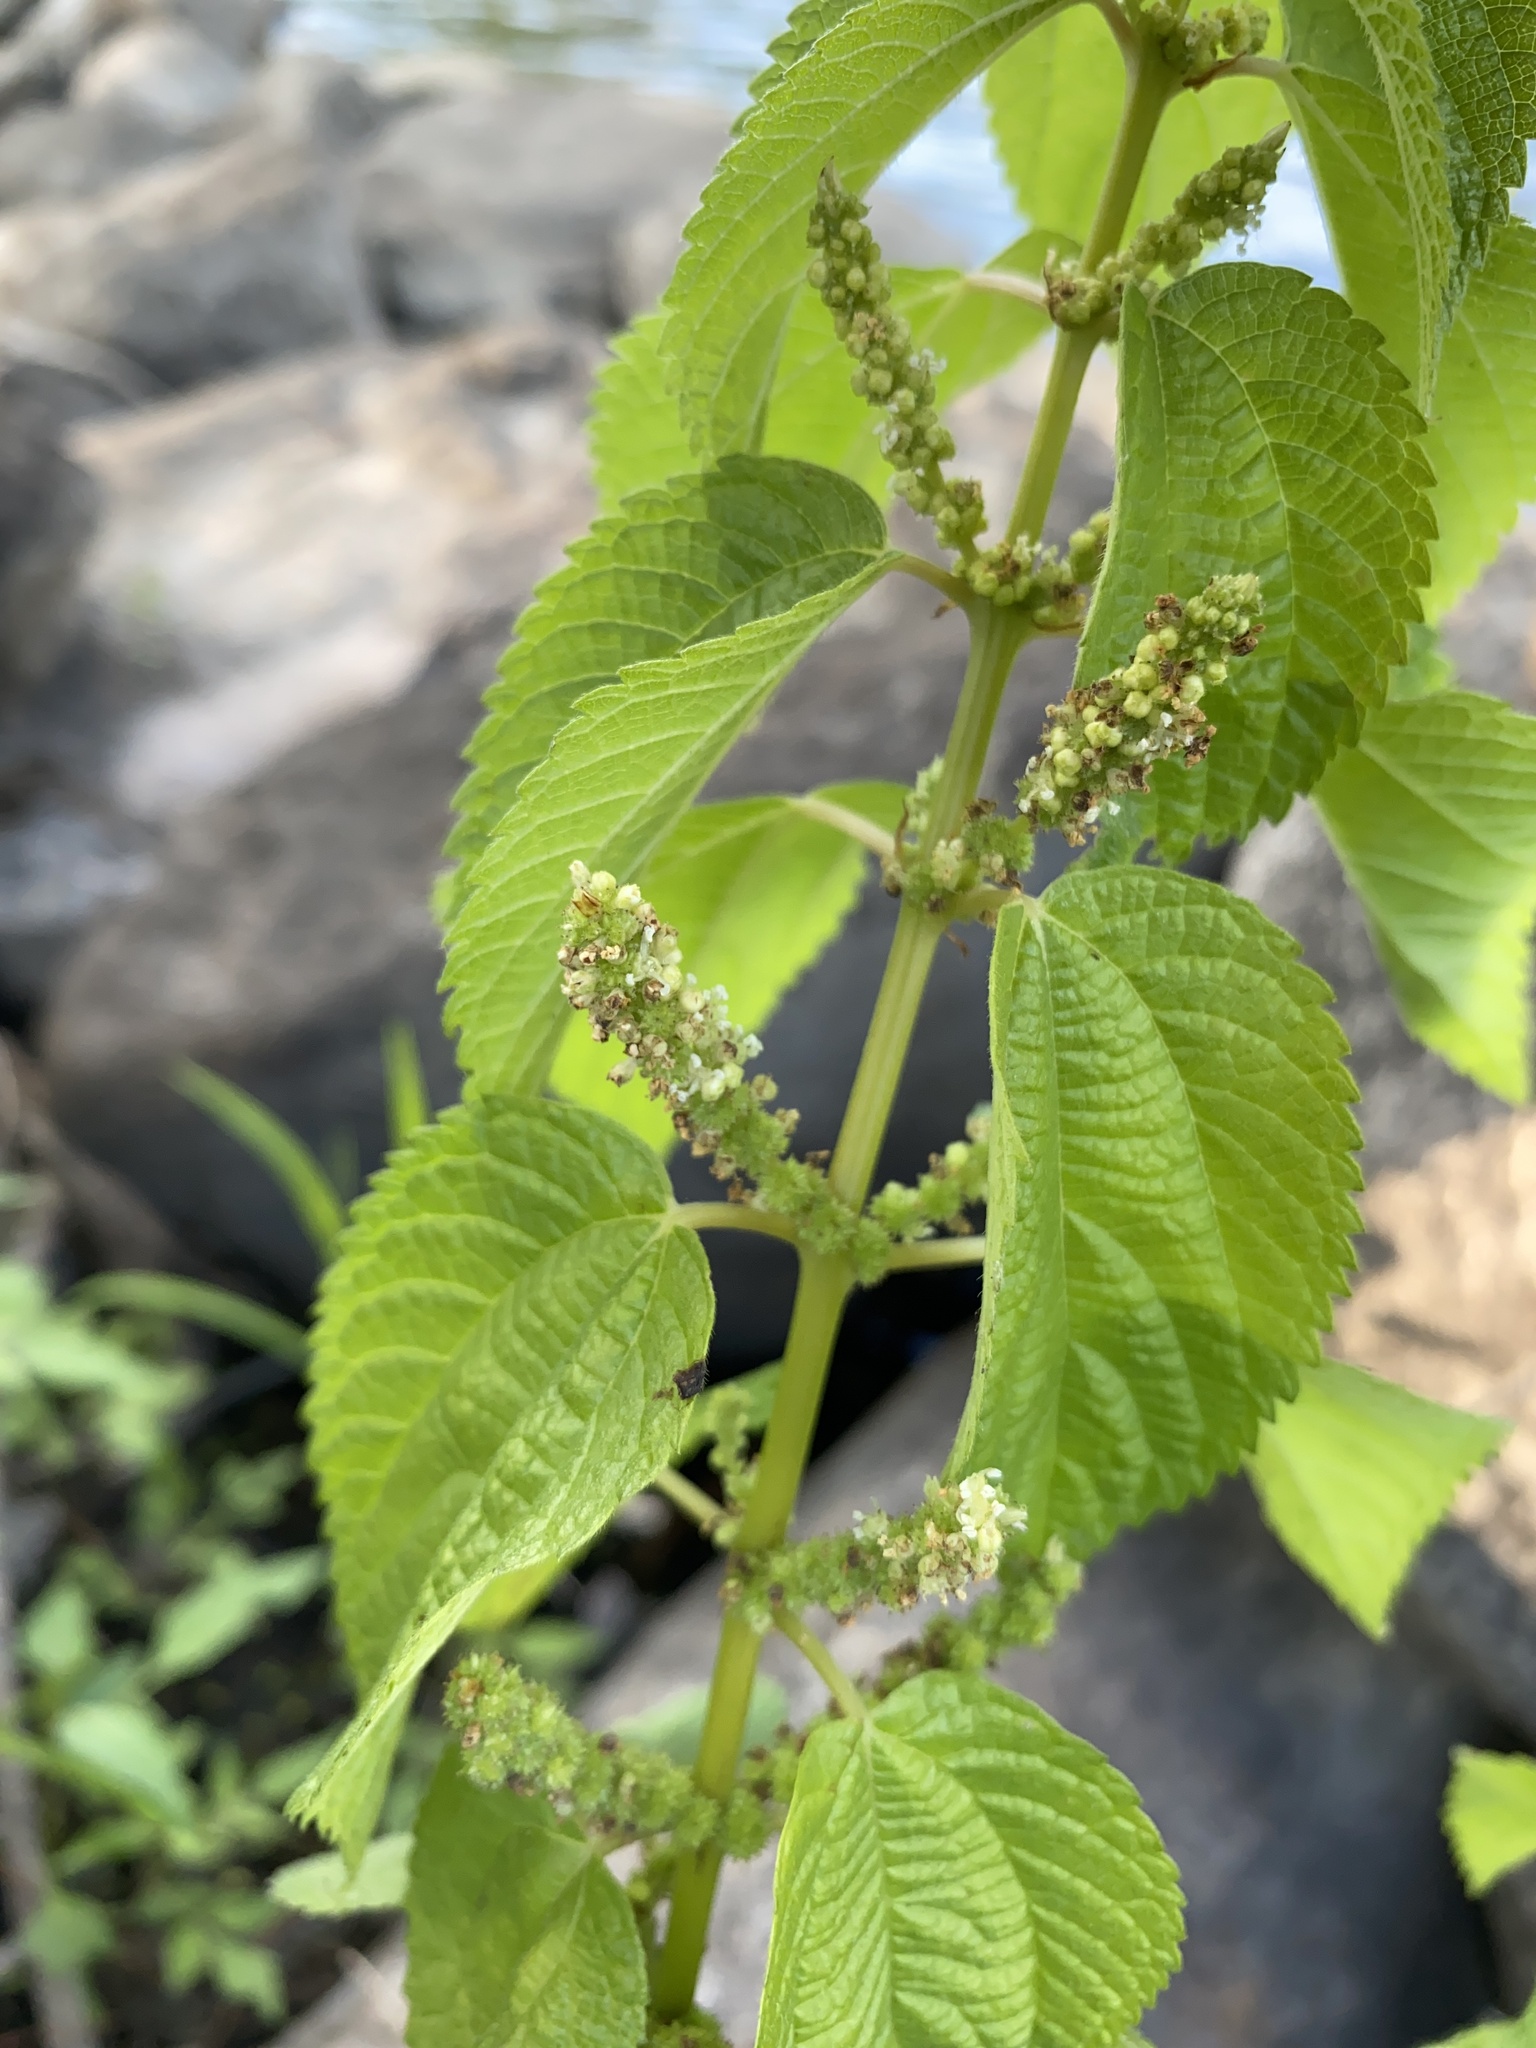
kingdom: Plantae
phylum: Tracheophyta
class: Magnoliopsida
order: Rosales
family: Urticaceae
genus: Boehmeria
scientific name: Boehmeria cylindrica
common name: Bog-hemp
